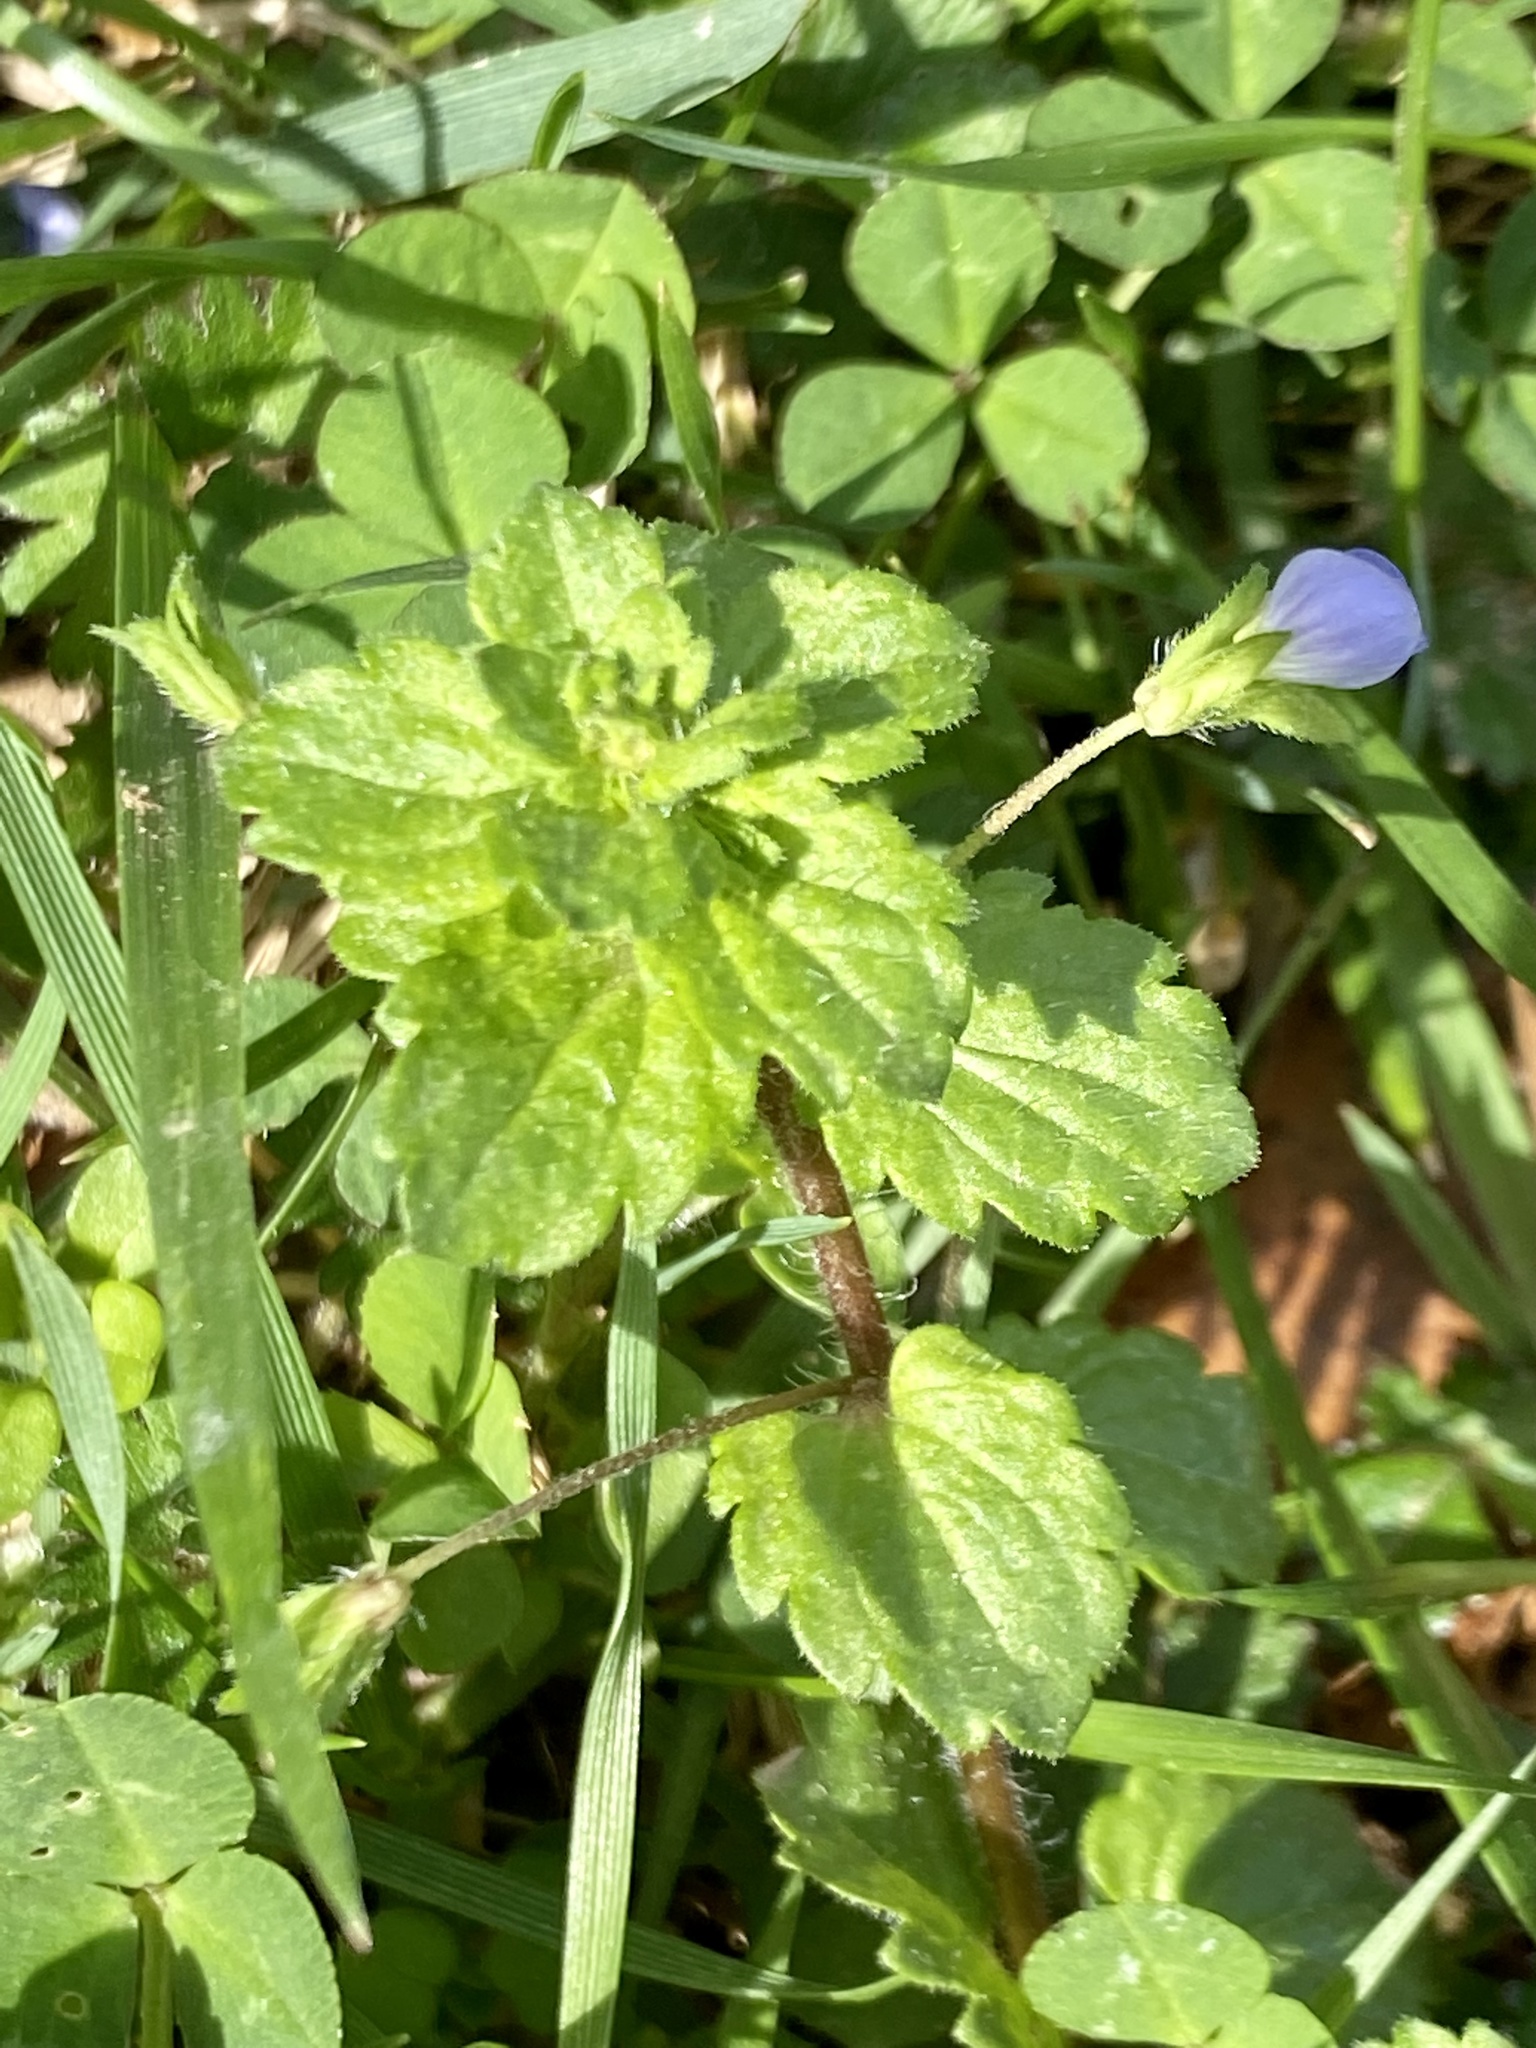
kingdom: Plantae
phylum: Tracheophyta
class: Magnoliopsida
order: Lamiales
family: Plantaginaceae
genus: Veronica
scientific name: Veronica persica
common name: Common field-speedwell
